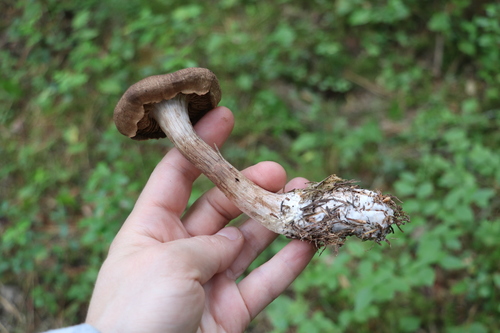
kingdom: Fungi
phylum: Basidiomycota
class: Agaricomycetes
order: Agaricales
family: Cortinariaceae
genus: Cortinarius
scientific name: Cortinarius brunneus
